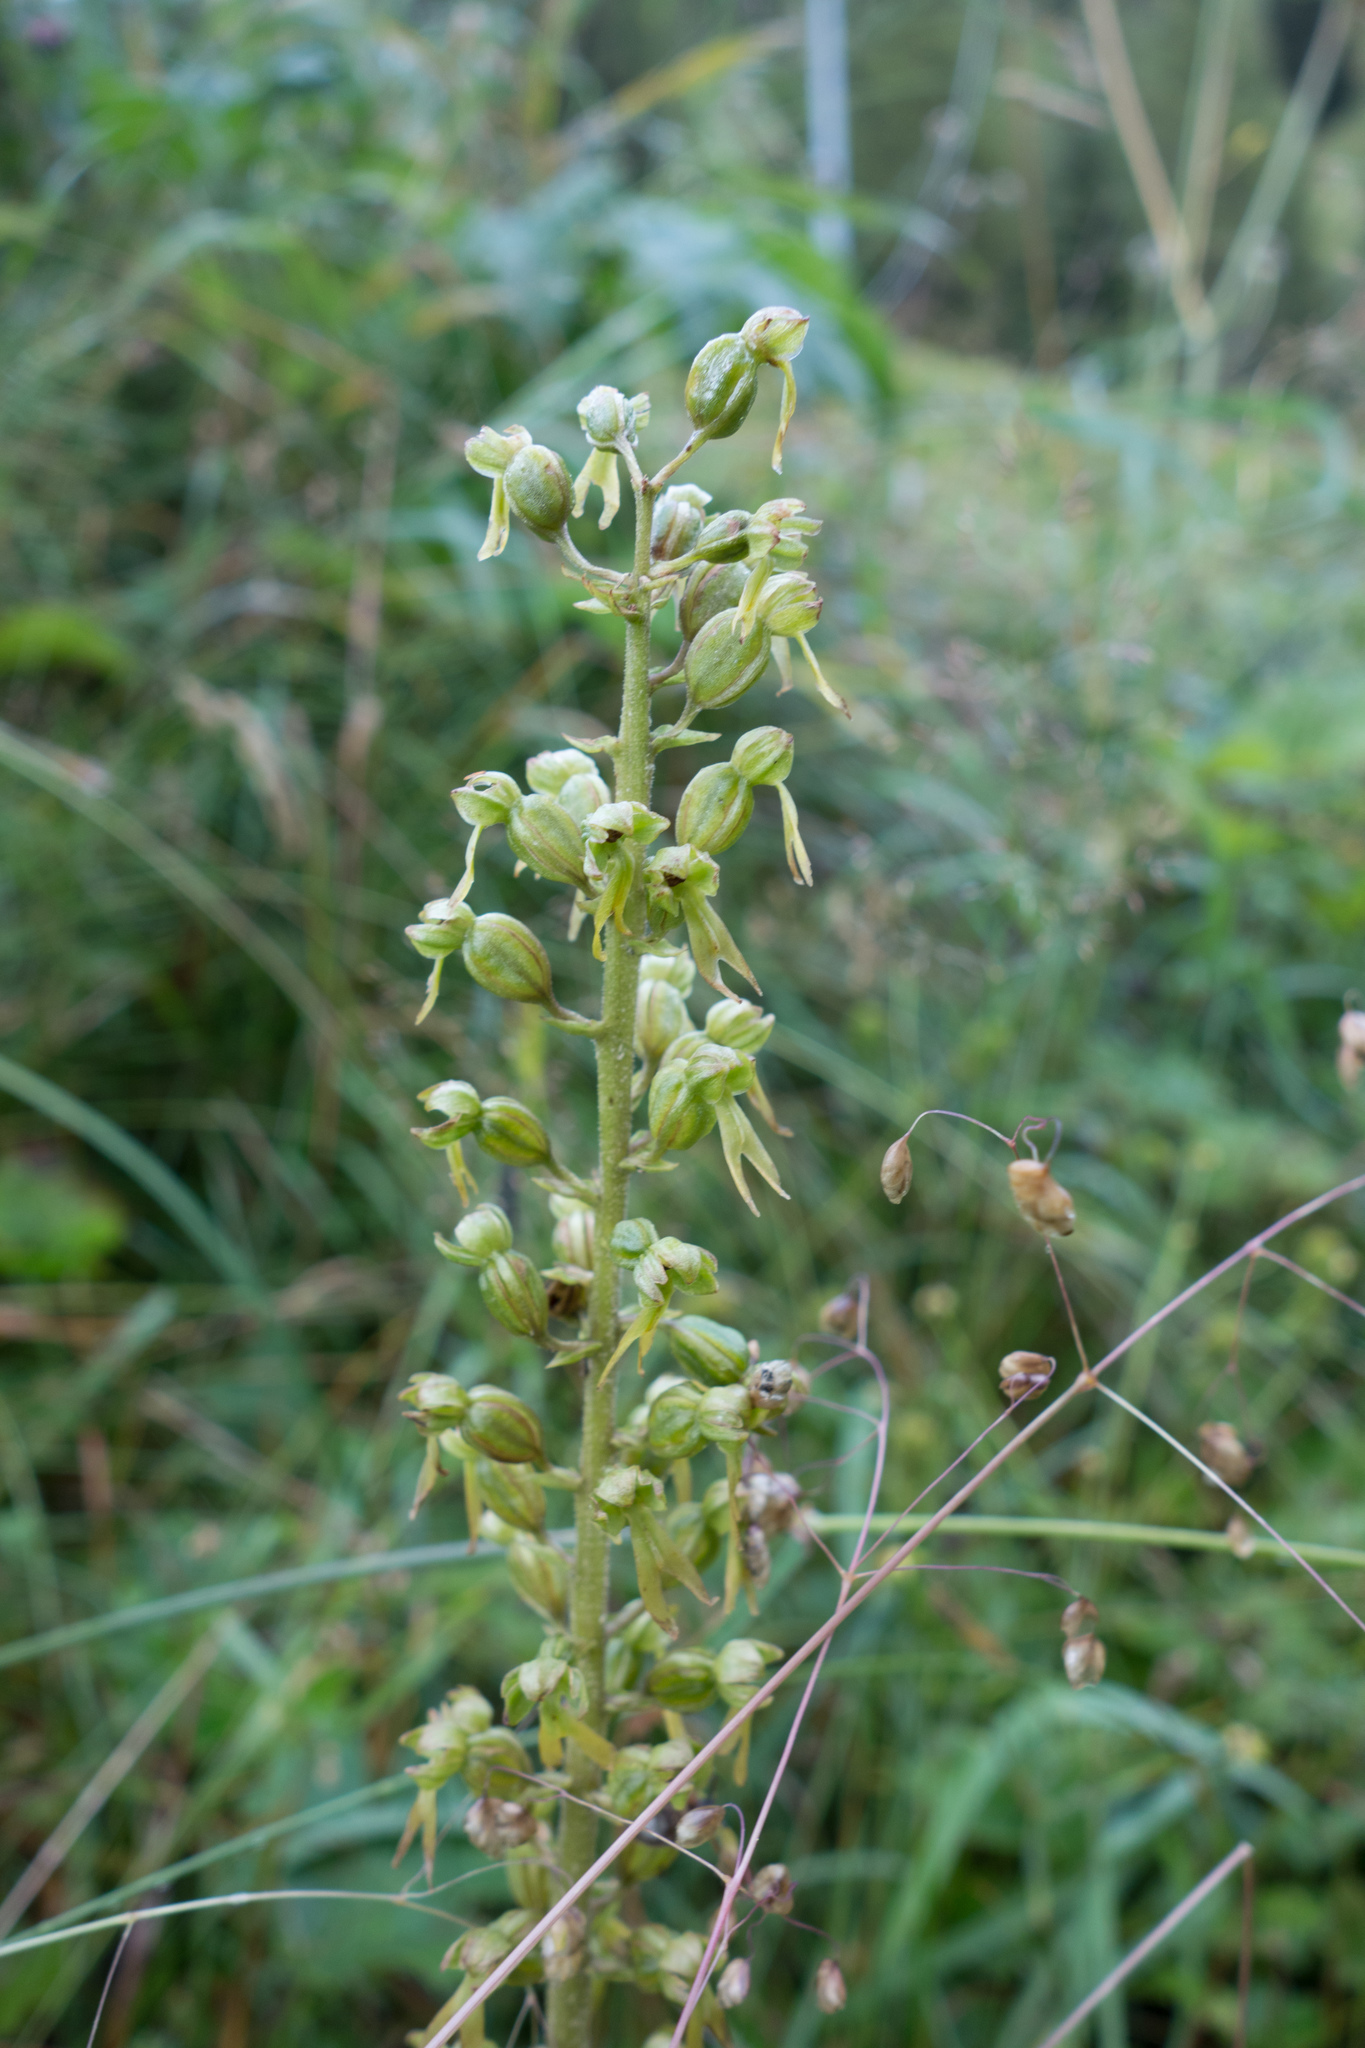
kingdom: Plantae
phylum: Tracheophyta
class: Liliopsida
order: Asparagales
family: Orchidaceae
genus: Neottia
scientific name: Neottia ovata
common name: Common twayblade
